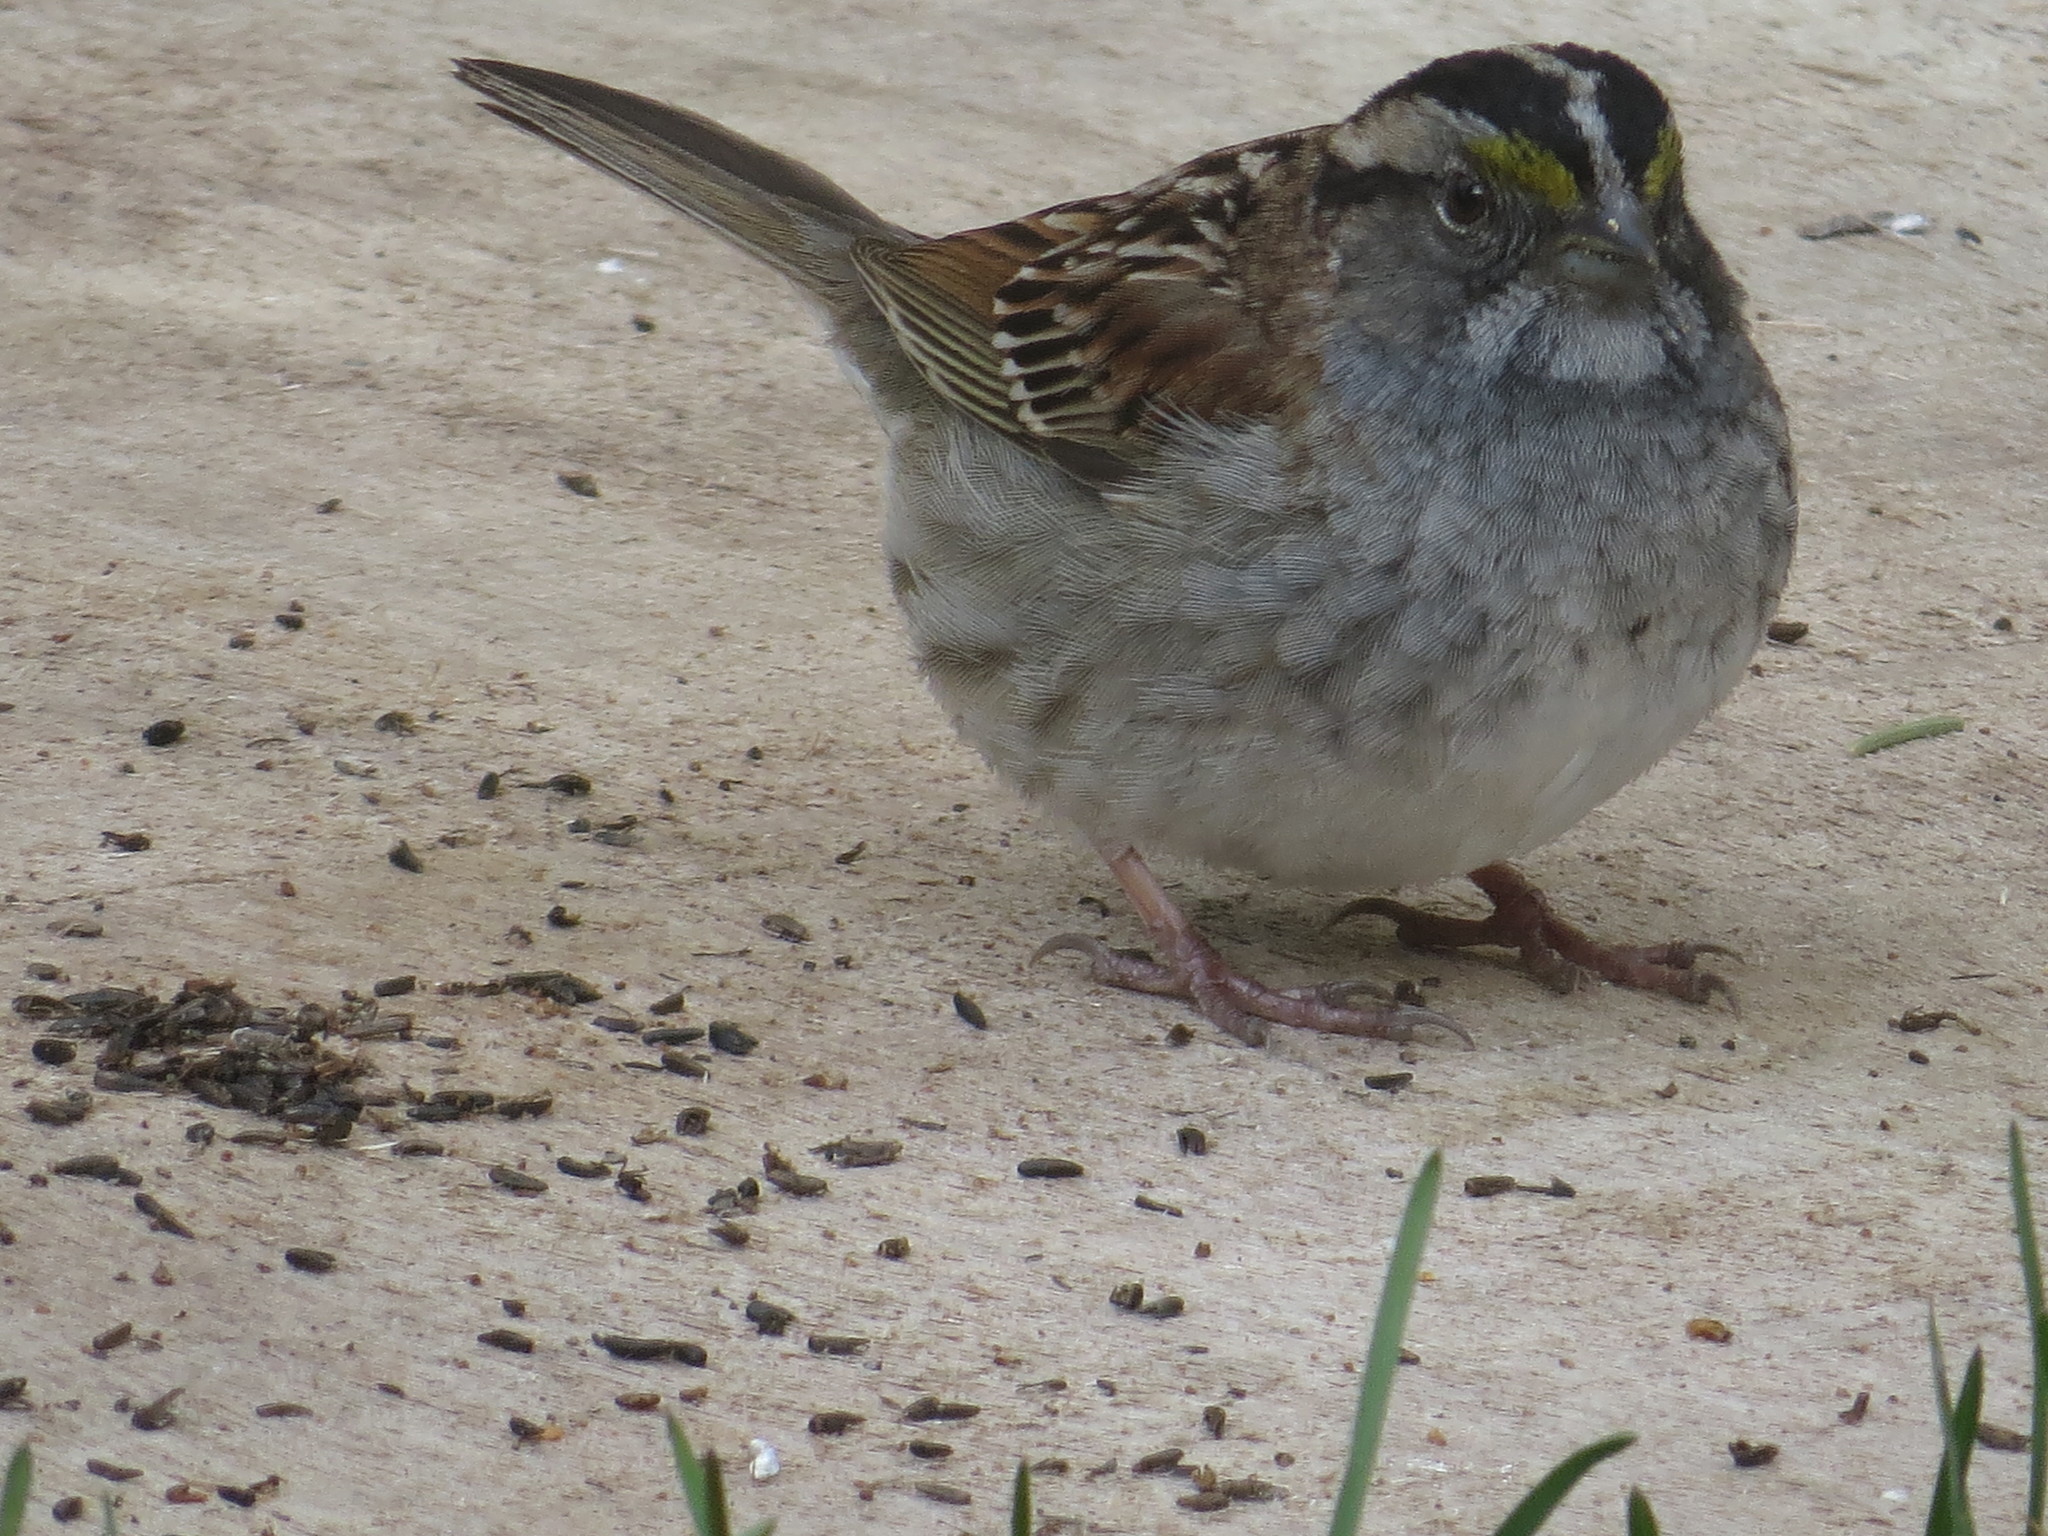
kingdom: Animalia
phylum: Chordata
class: Aves
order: Passeriformes
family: Passerellidae
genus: Zonotrichia
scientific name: Zonotrichia albicollis
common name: White-throated sparrow
